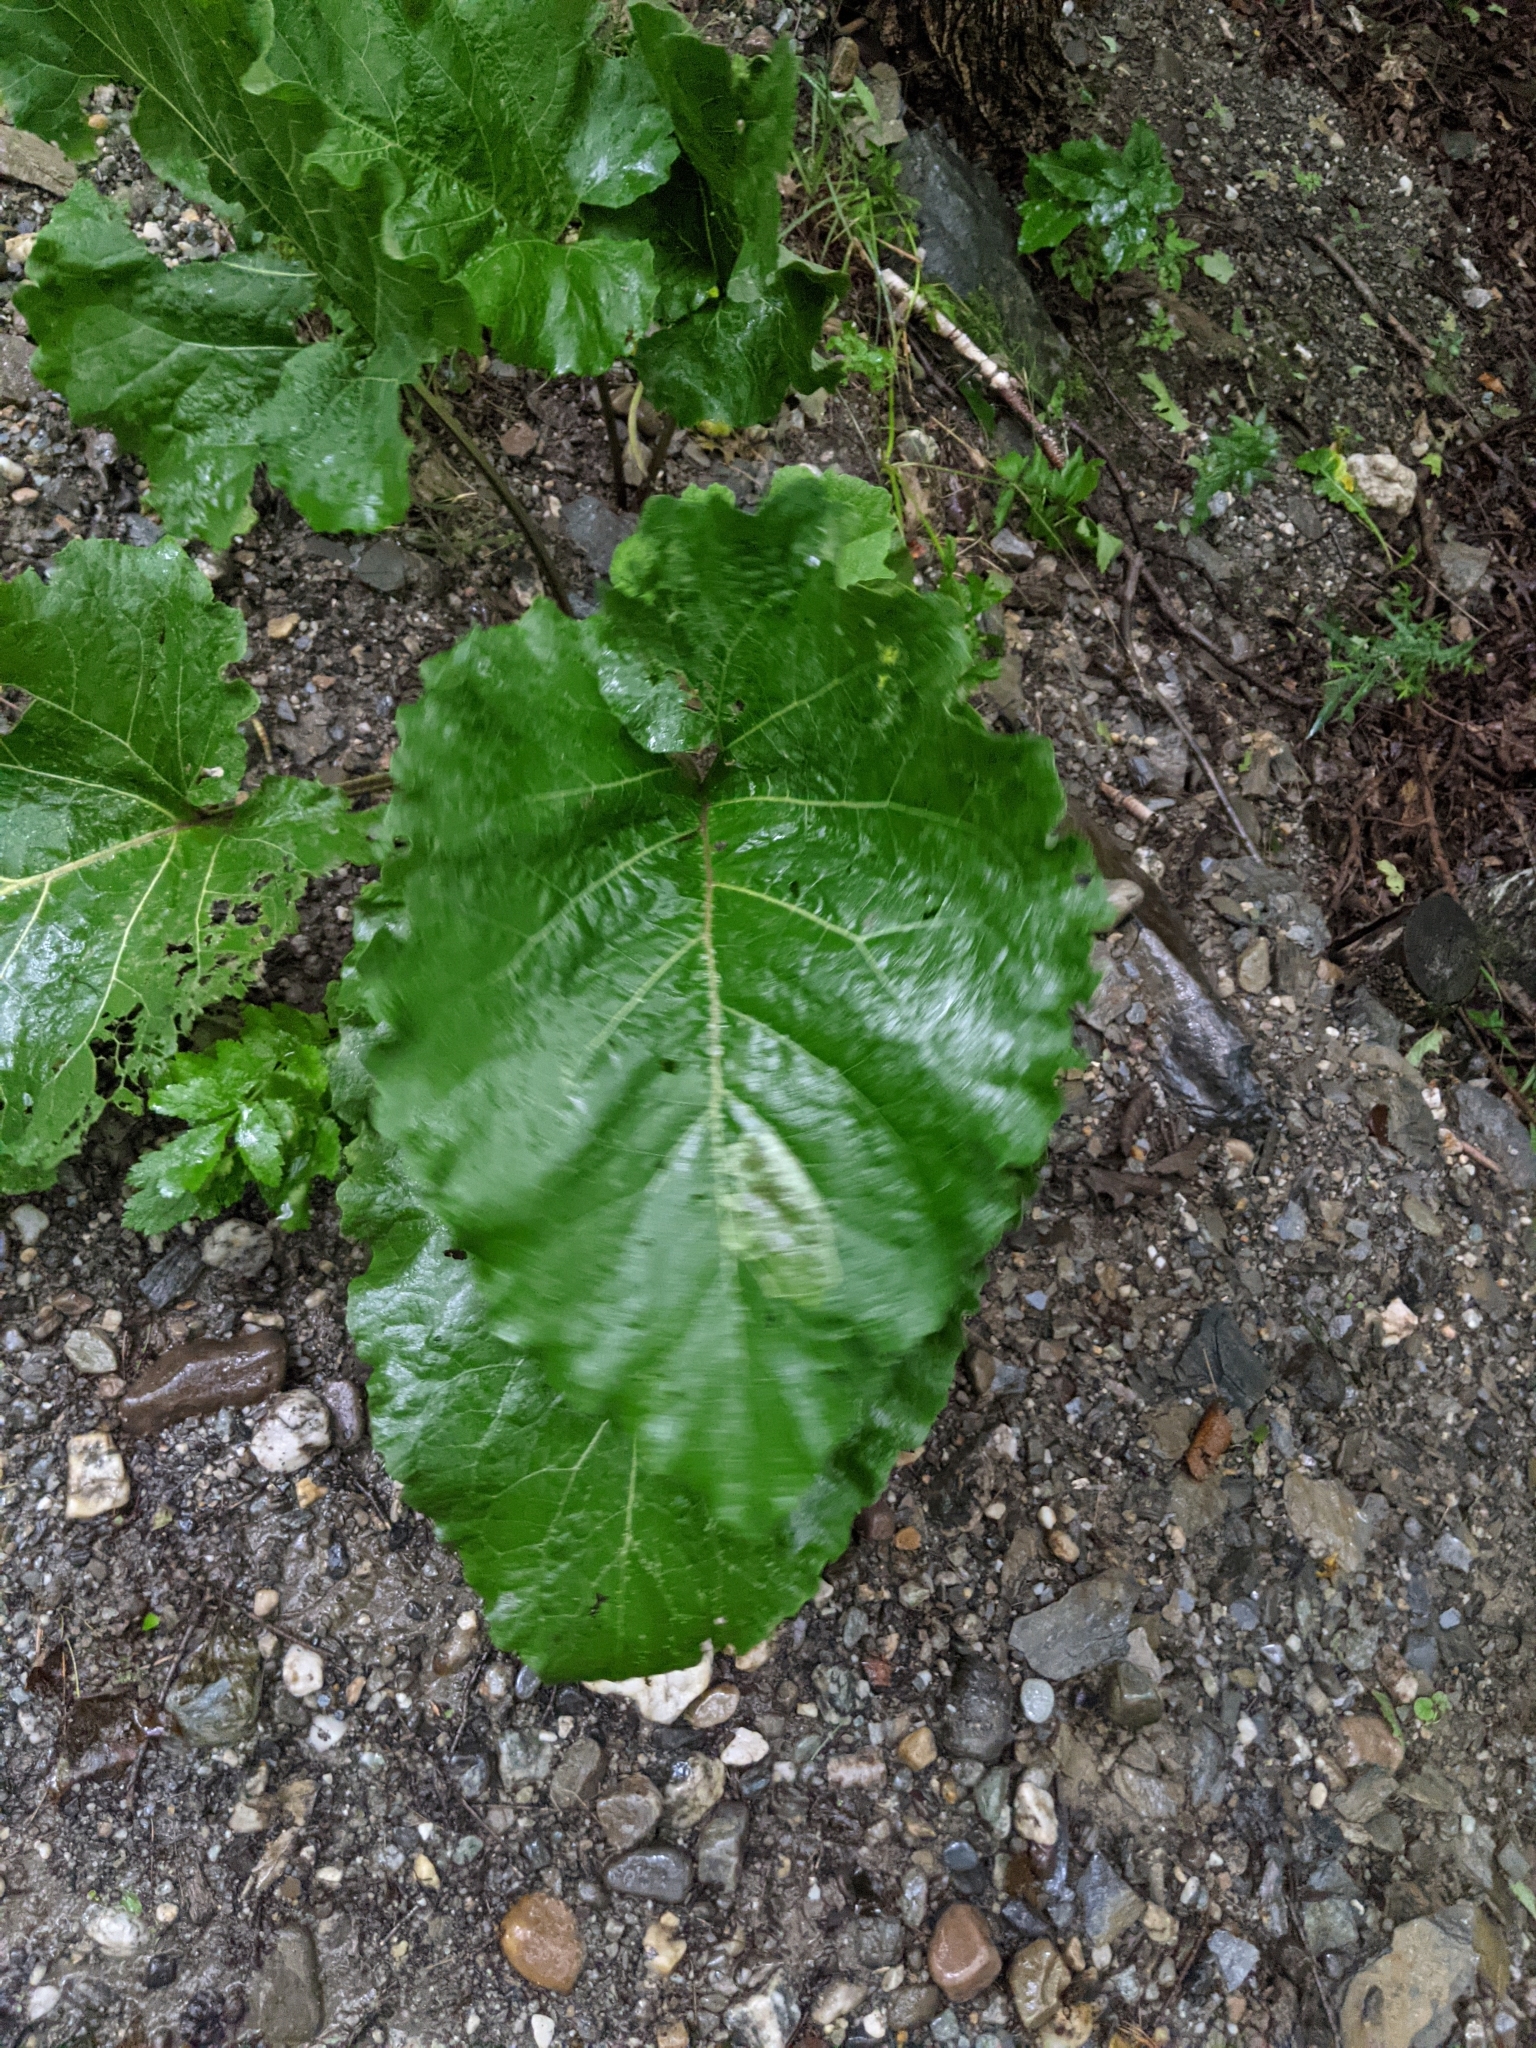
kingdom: Animalia
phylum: Arthropoda
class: Insecta
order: Diptera
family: Agromyzidae
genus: Calycomyza
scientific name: Calycomyza flavinotum
